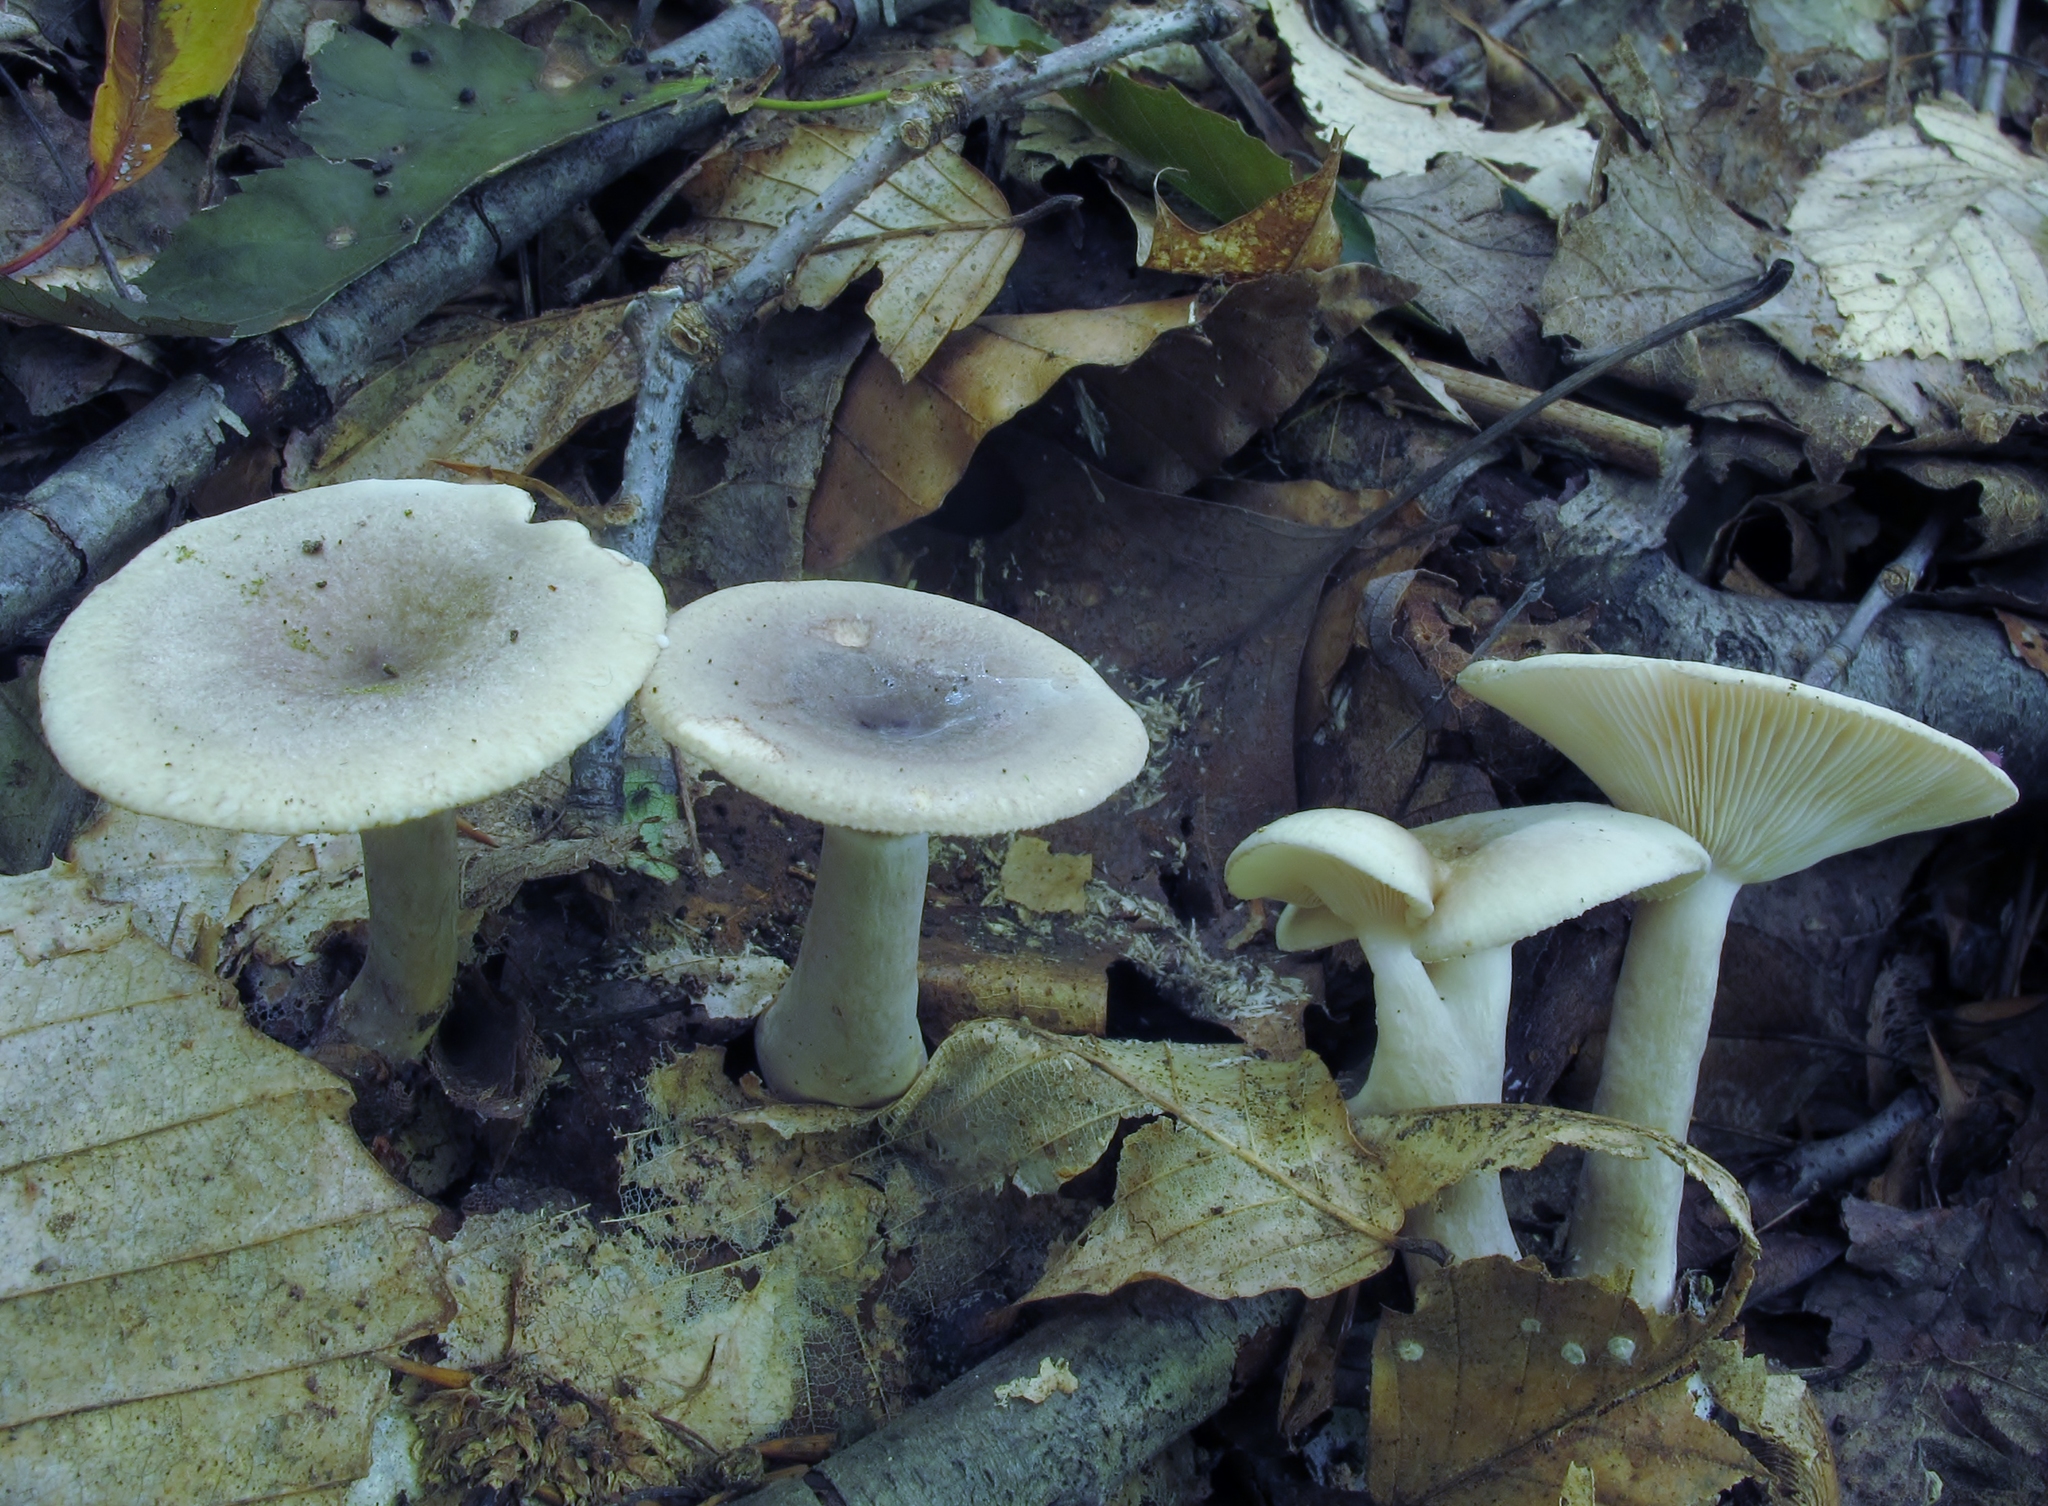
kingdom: Fungi
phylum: Basidiomycota
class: Agaricomycetes
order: Russulales
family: Russulaceae
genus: Lactarius
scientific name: Lactarius cinereus
